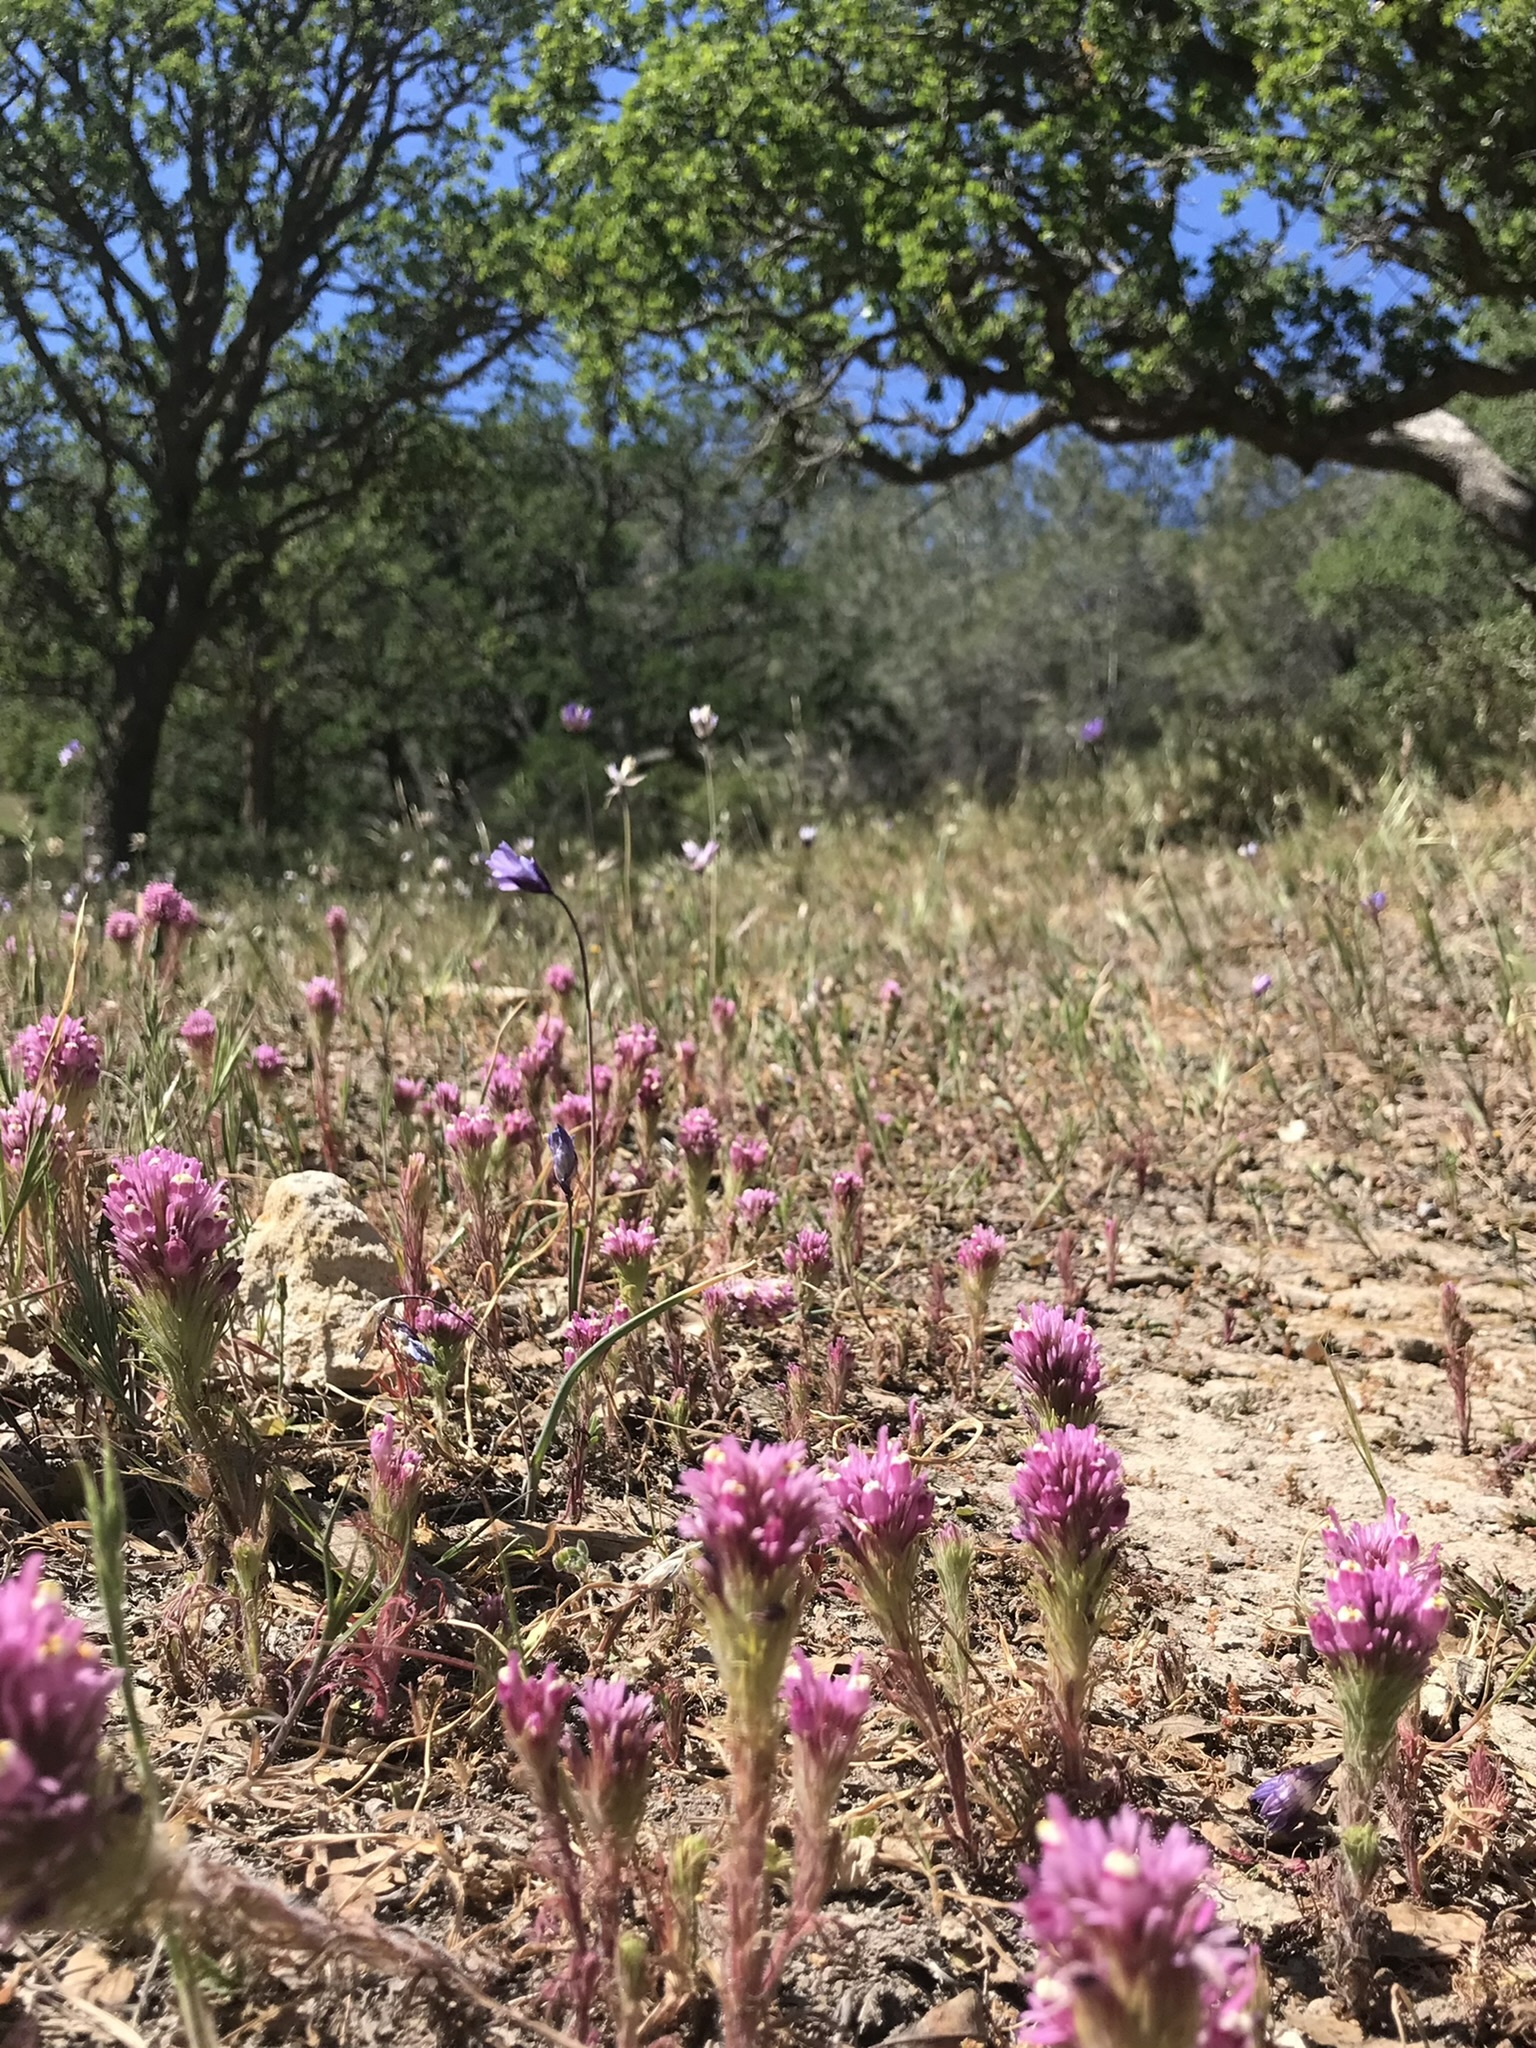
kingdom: Plantae
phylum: Tracheophyta
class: Magnoliopsida
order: Lamiales
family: Orobanchaceae
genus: Castilleja
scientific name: Castilleja exserta
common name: Purple owl-clover
